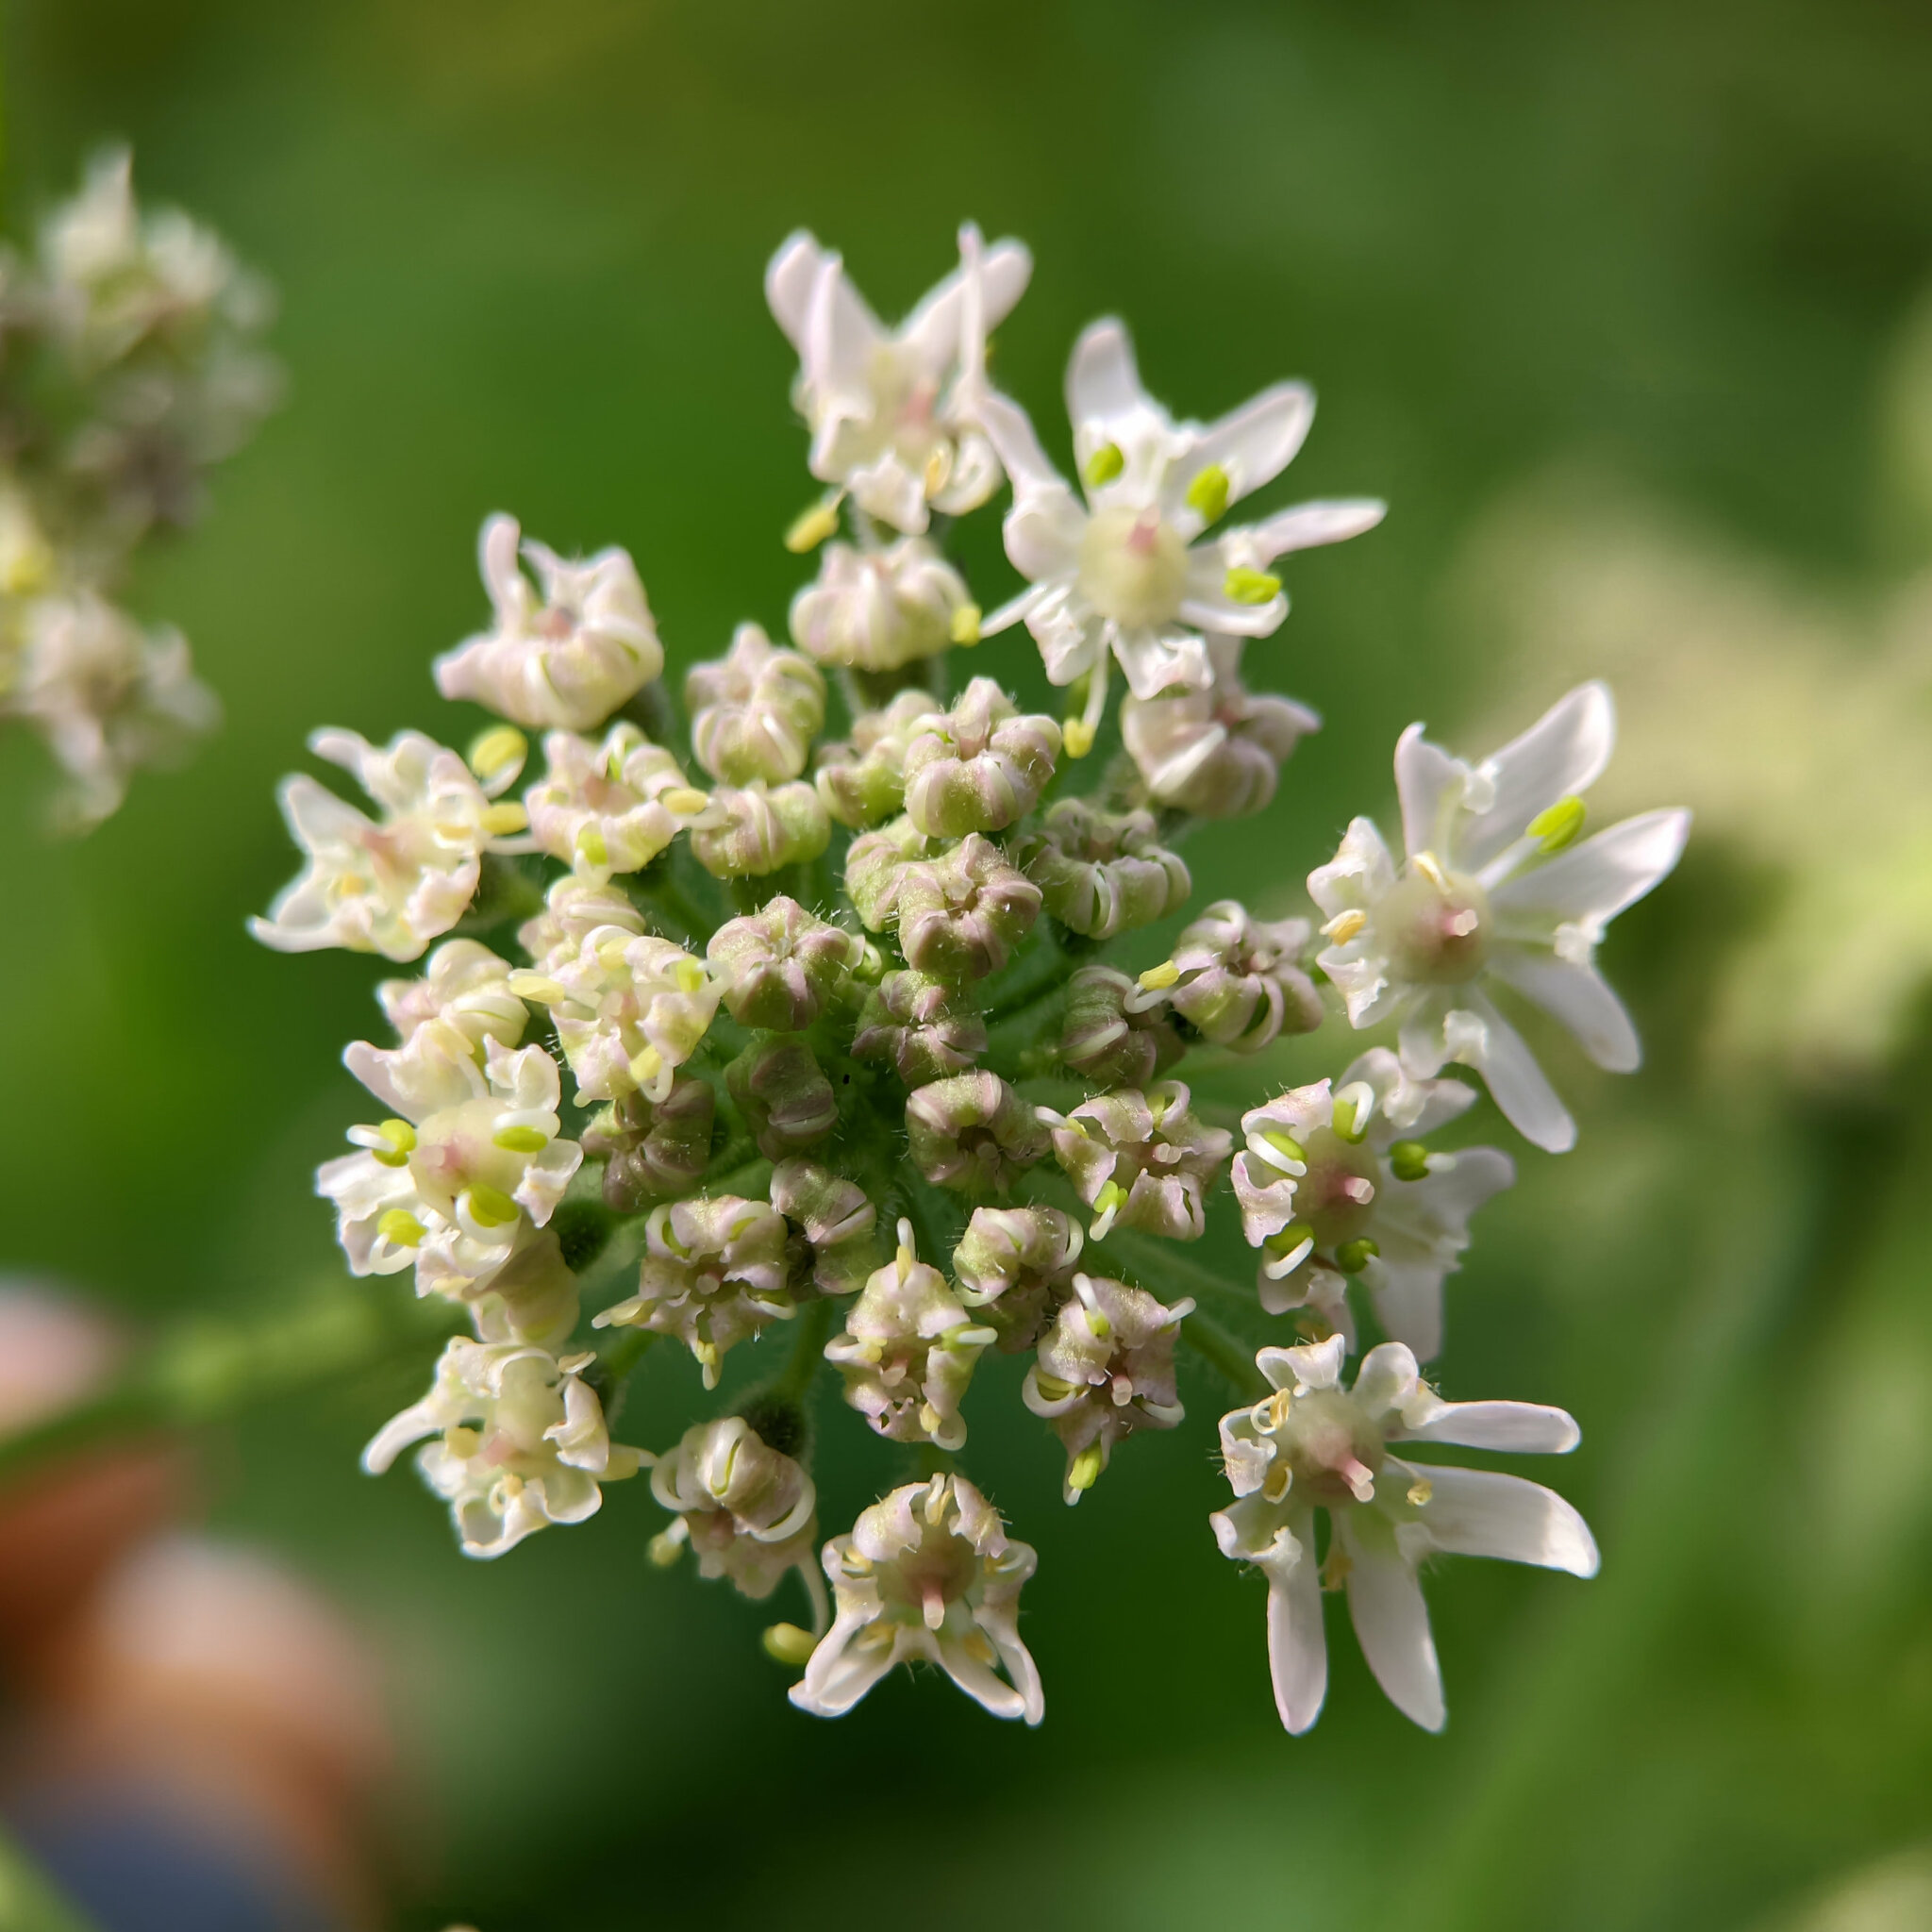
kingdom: Plantae
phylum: Tracheophyta
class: Magnoliopsida
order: Apiales
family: Apiaceae
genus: Heracleum
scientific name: Heracleum sphondylium
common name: Hogweed
